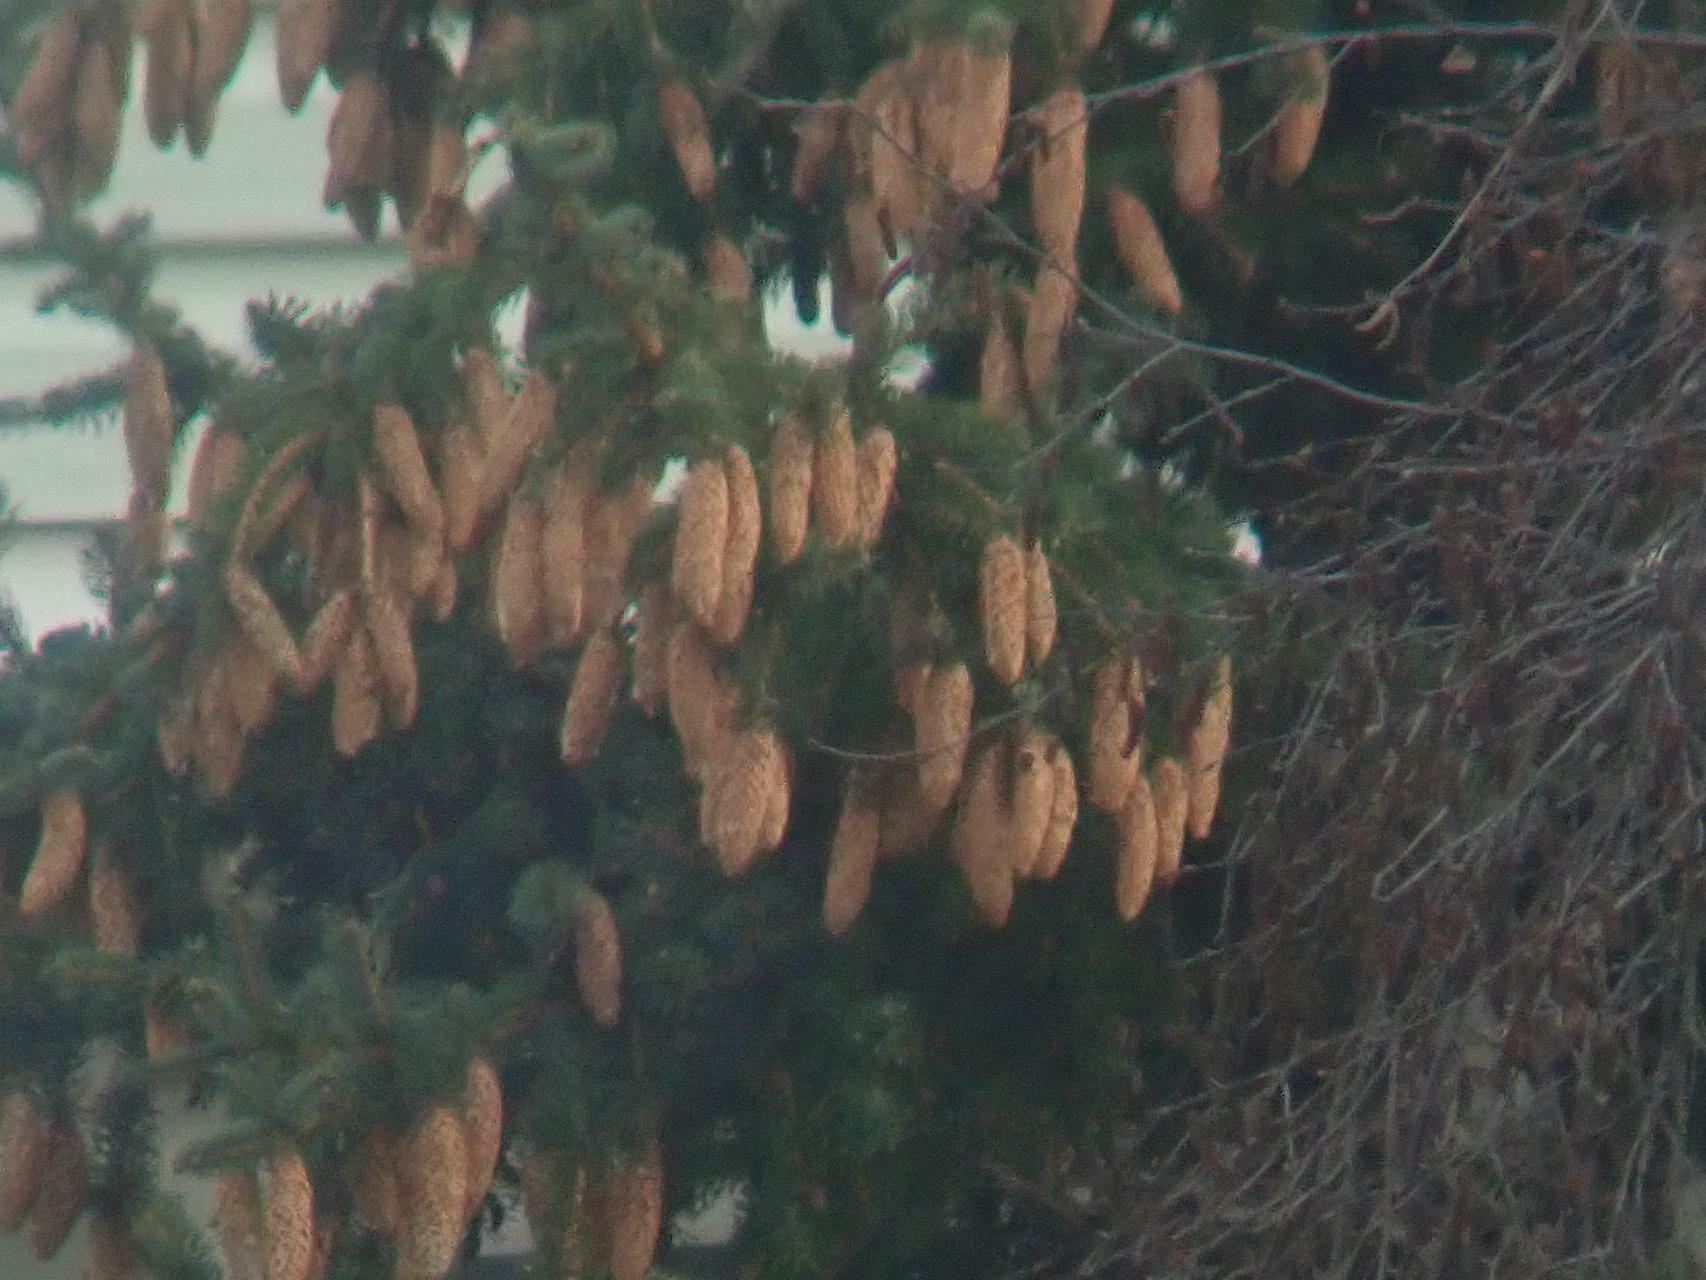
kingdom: Plantae
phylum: Tracheophyta
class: Pinopsida
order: Pinales
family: Pinaceae
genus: Picea
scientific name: Picea abies
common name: Norway spruce
